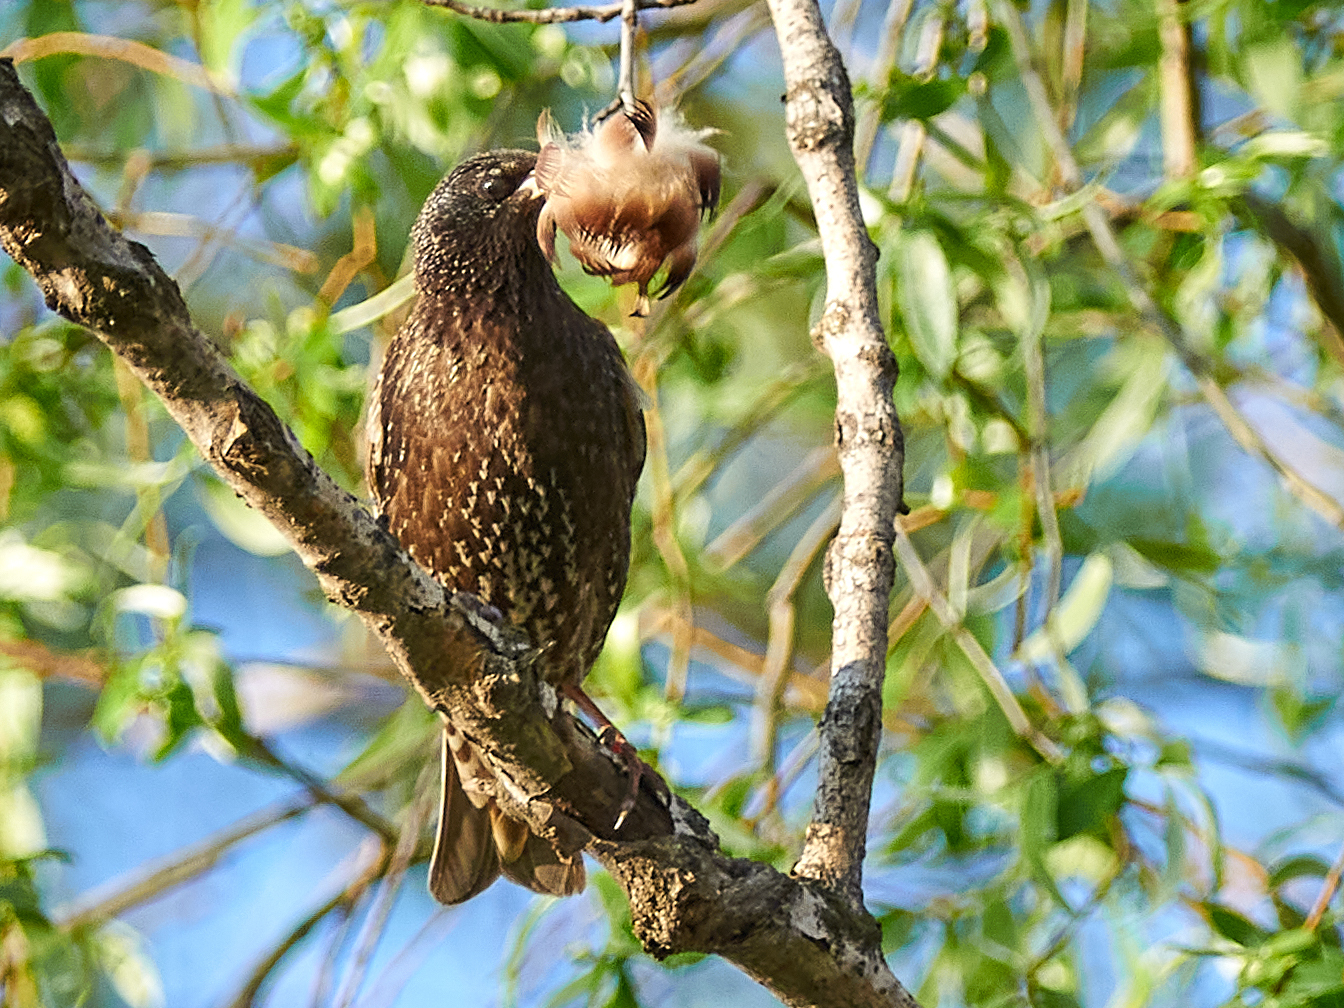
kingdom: Animalia
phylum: Chordata
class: Aves
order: Passeriformes
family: Sturnidae
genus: Sturnus
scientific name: Sturnus vulgaris
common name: Common starling
